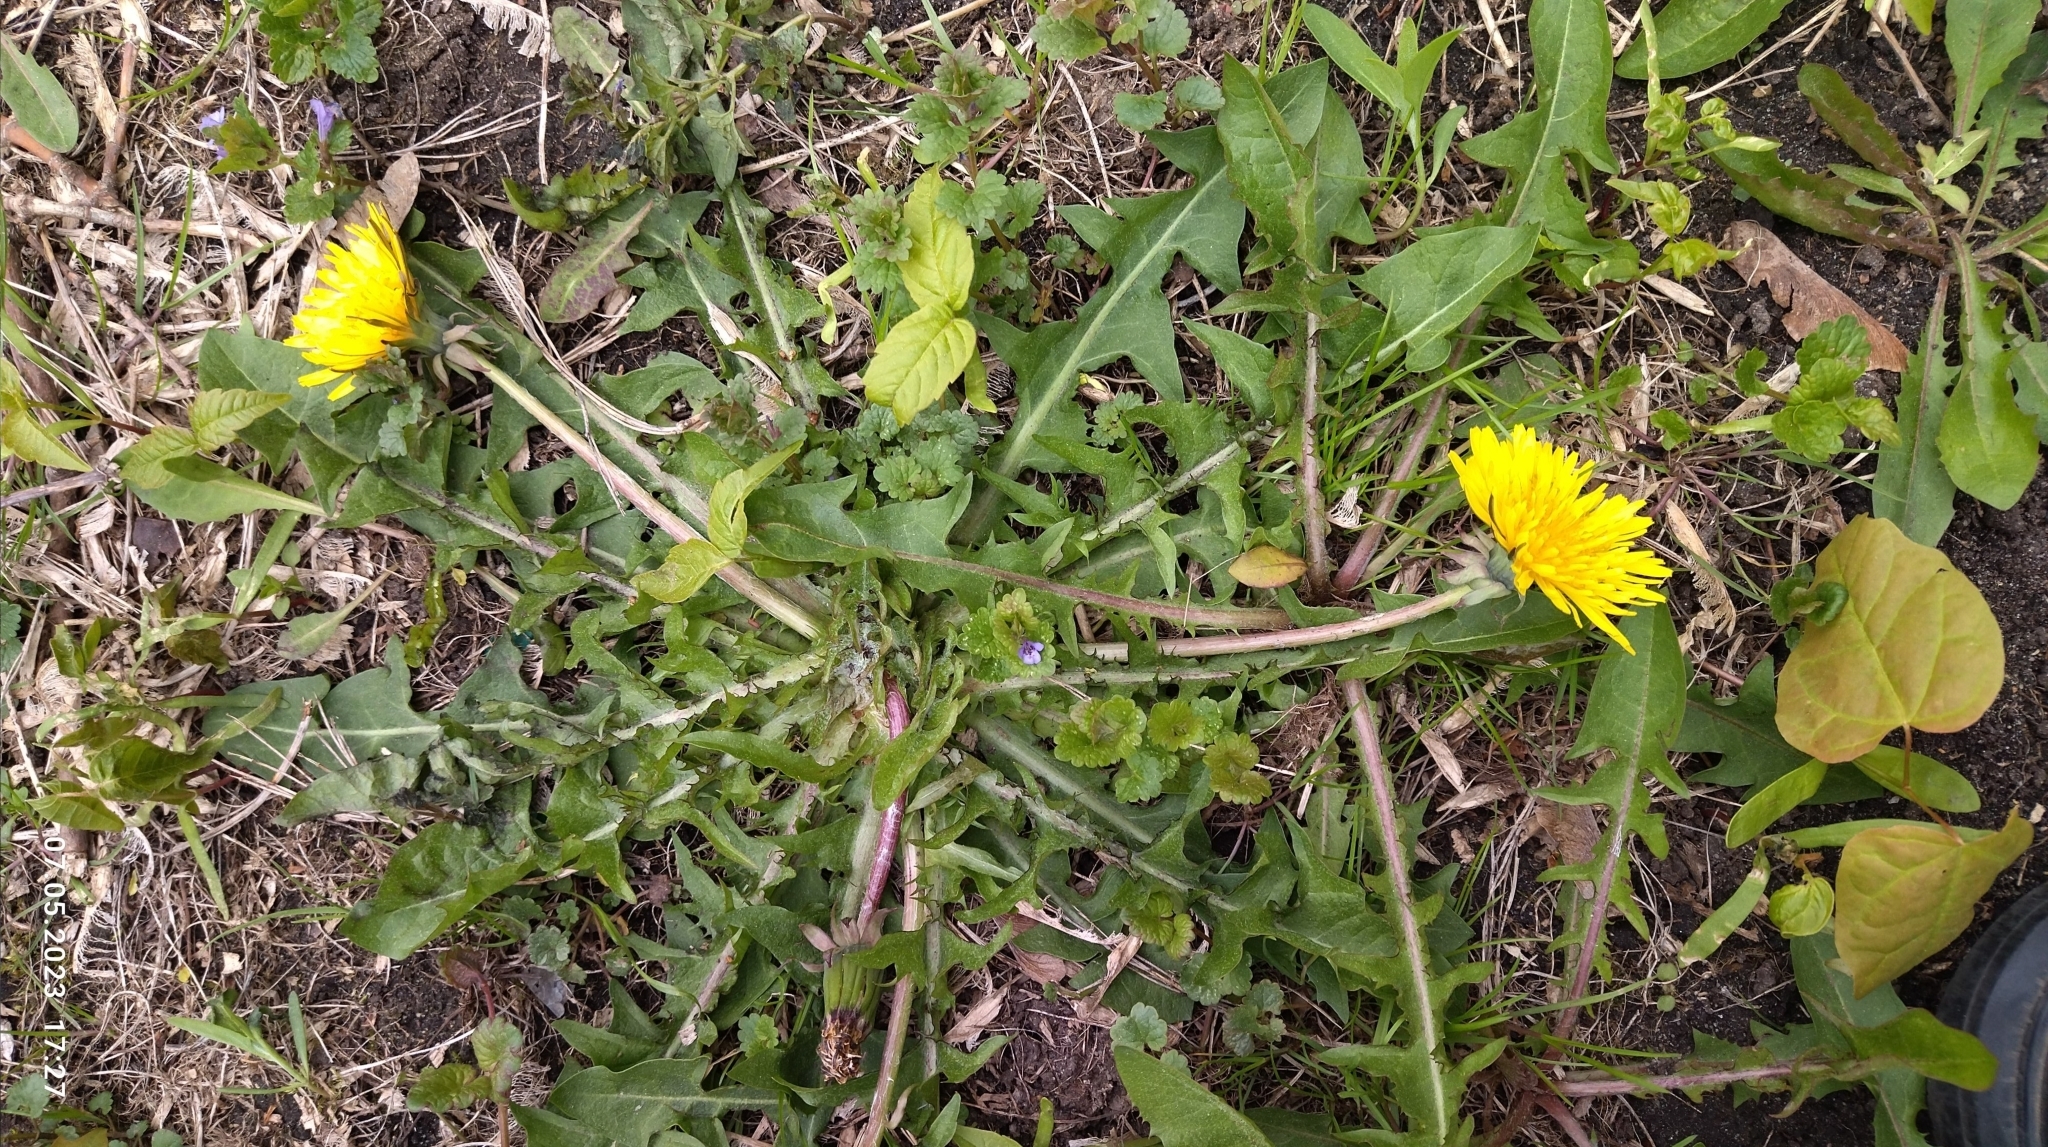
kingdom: Plantae
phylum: Tracheophyta
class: Magnoliopsida
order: Asterales
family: Asteraceae
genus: Taraxacum
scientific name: Taraxacum officinale
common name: Common dandelion
